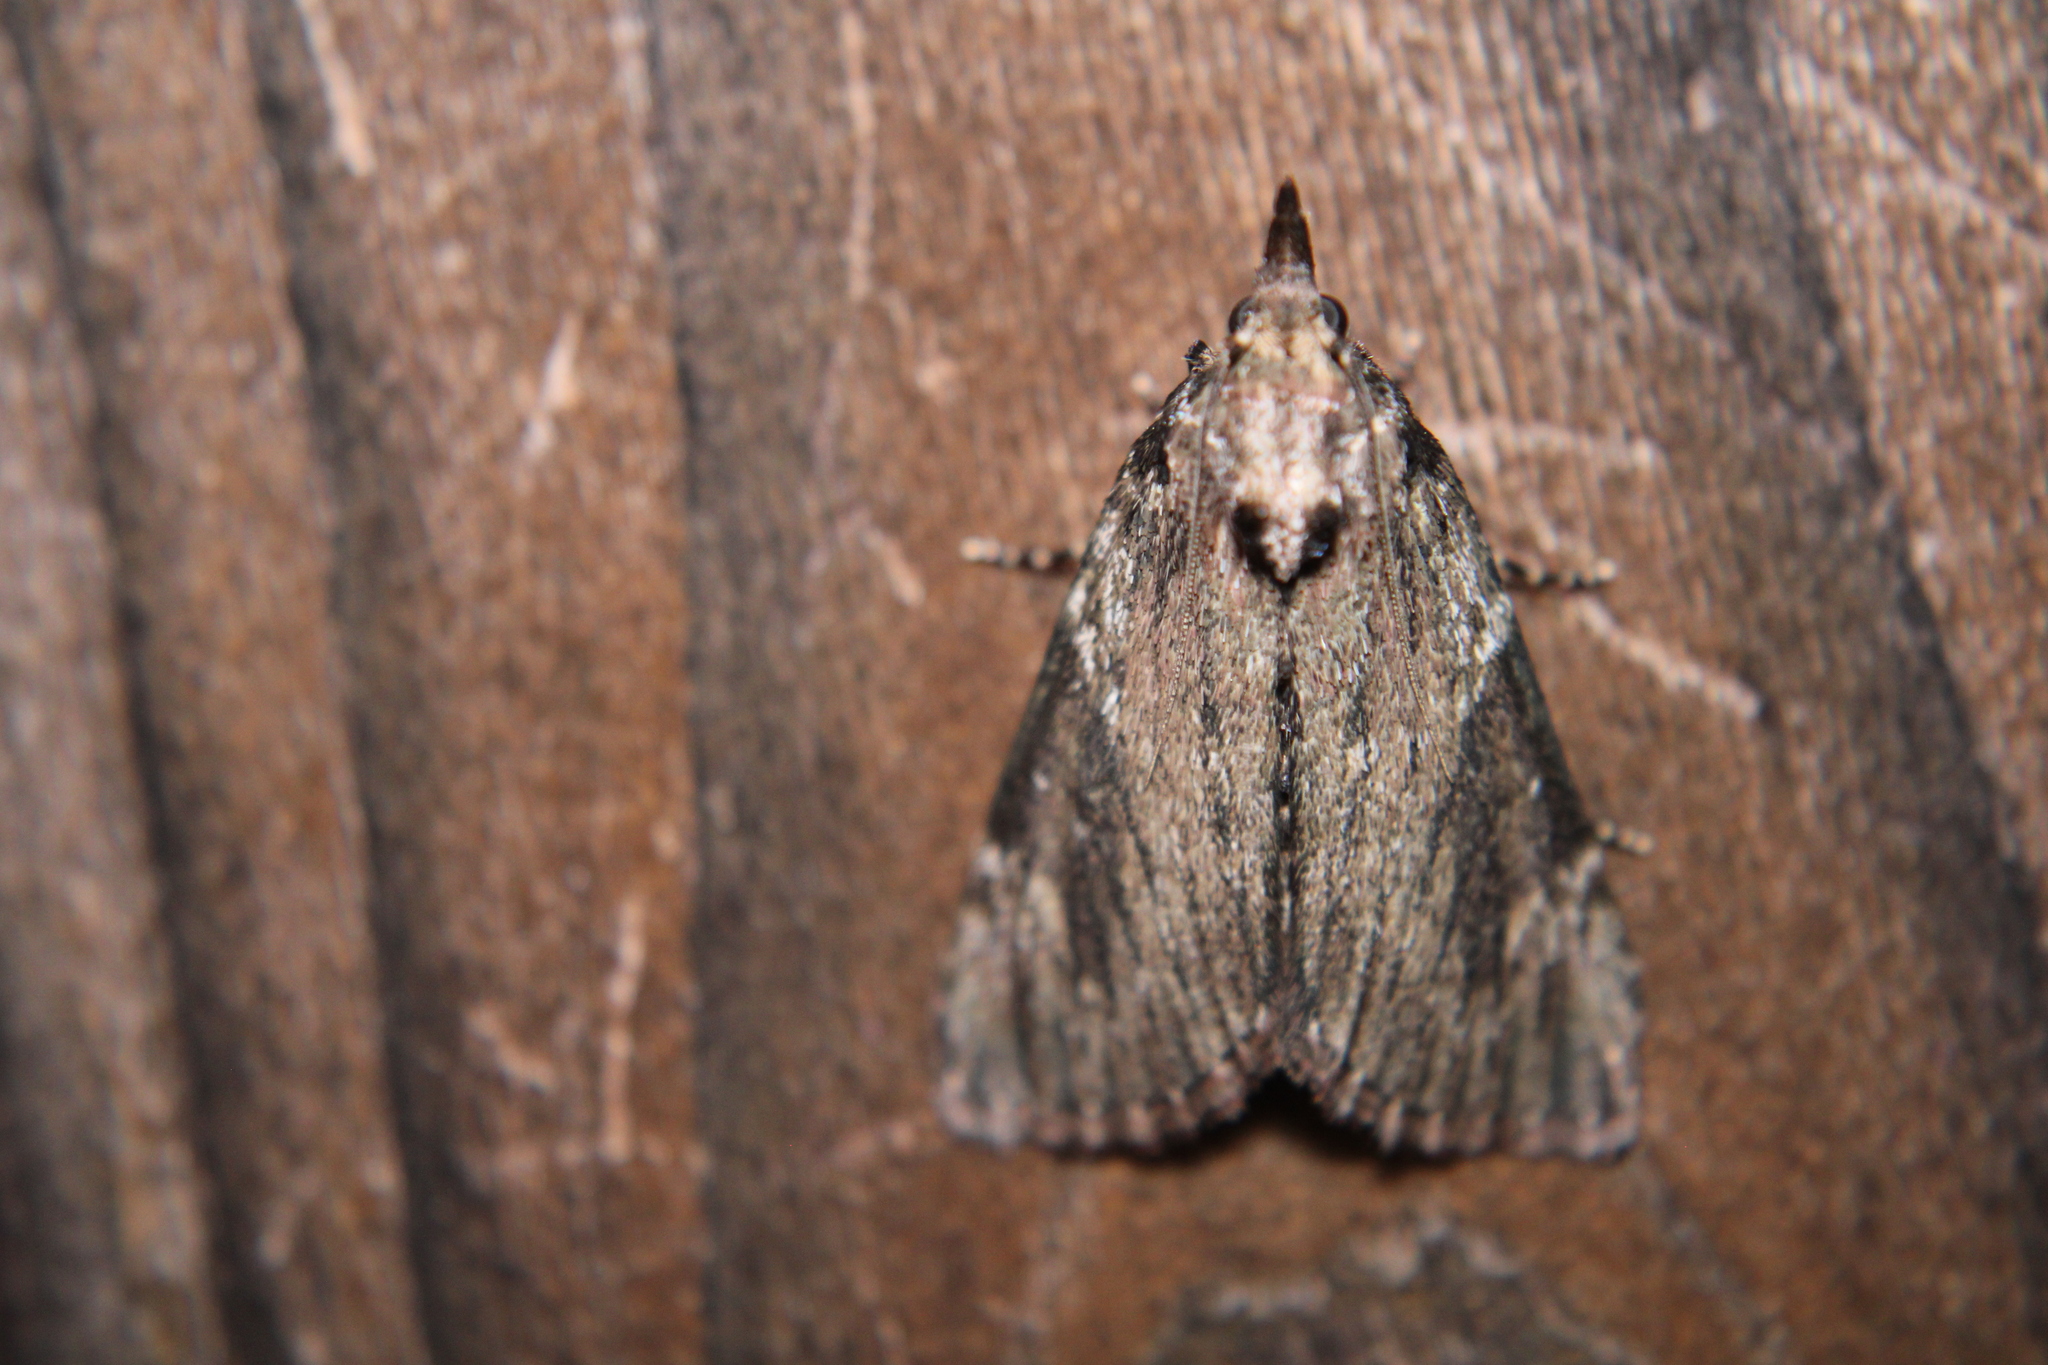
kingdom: Animalia
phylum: Arthropoda
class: Insecta
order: Lepidoptera
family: Pyralidae
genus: Omphalocera
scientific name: Omphalocera cariosa
